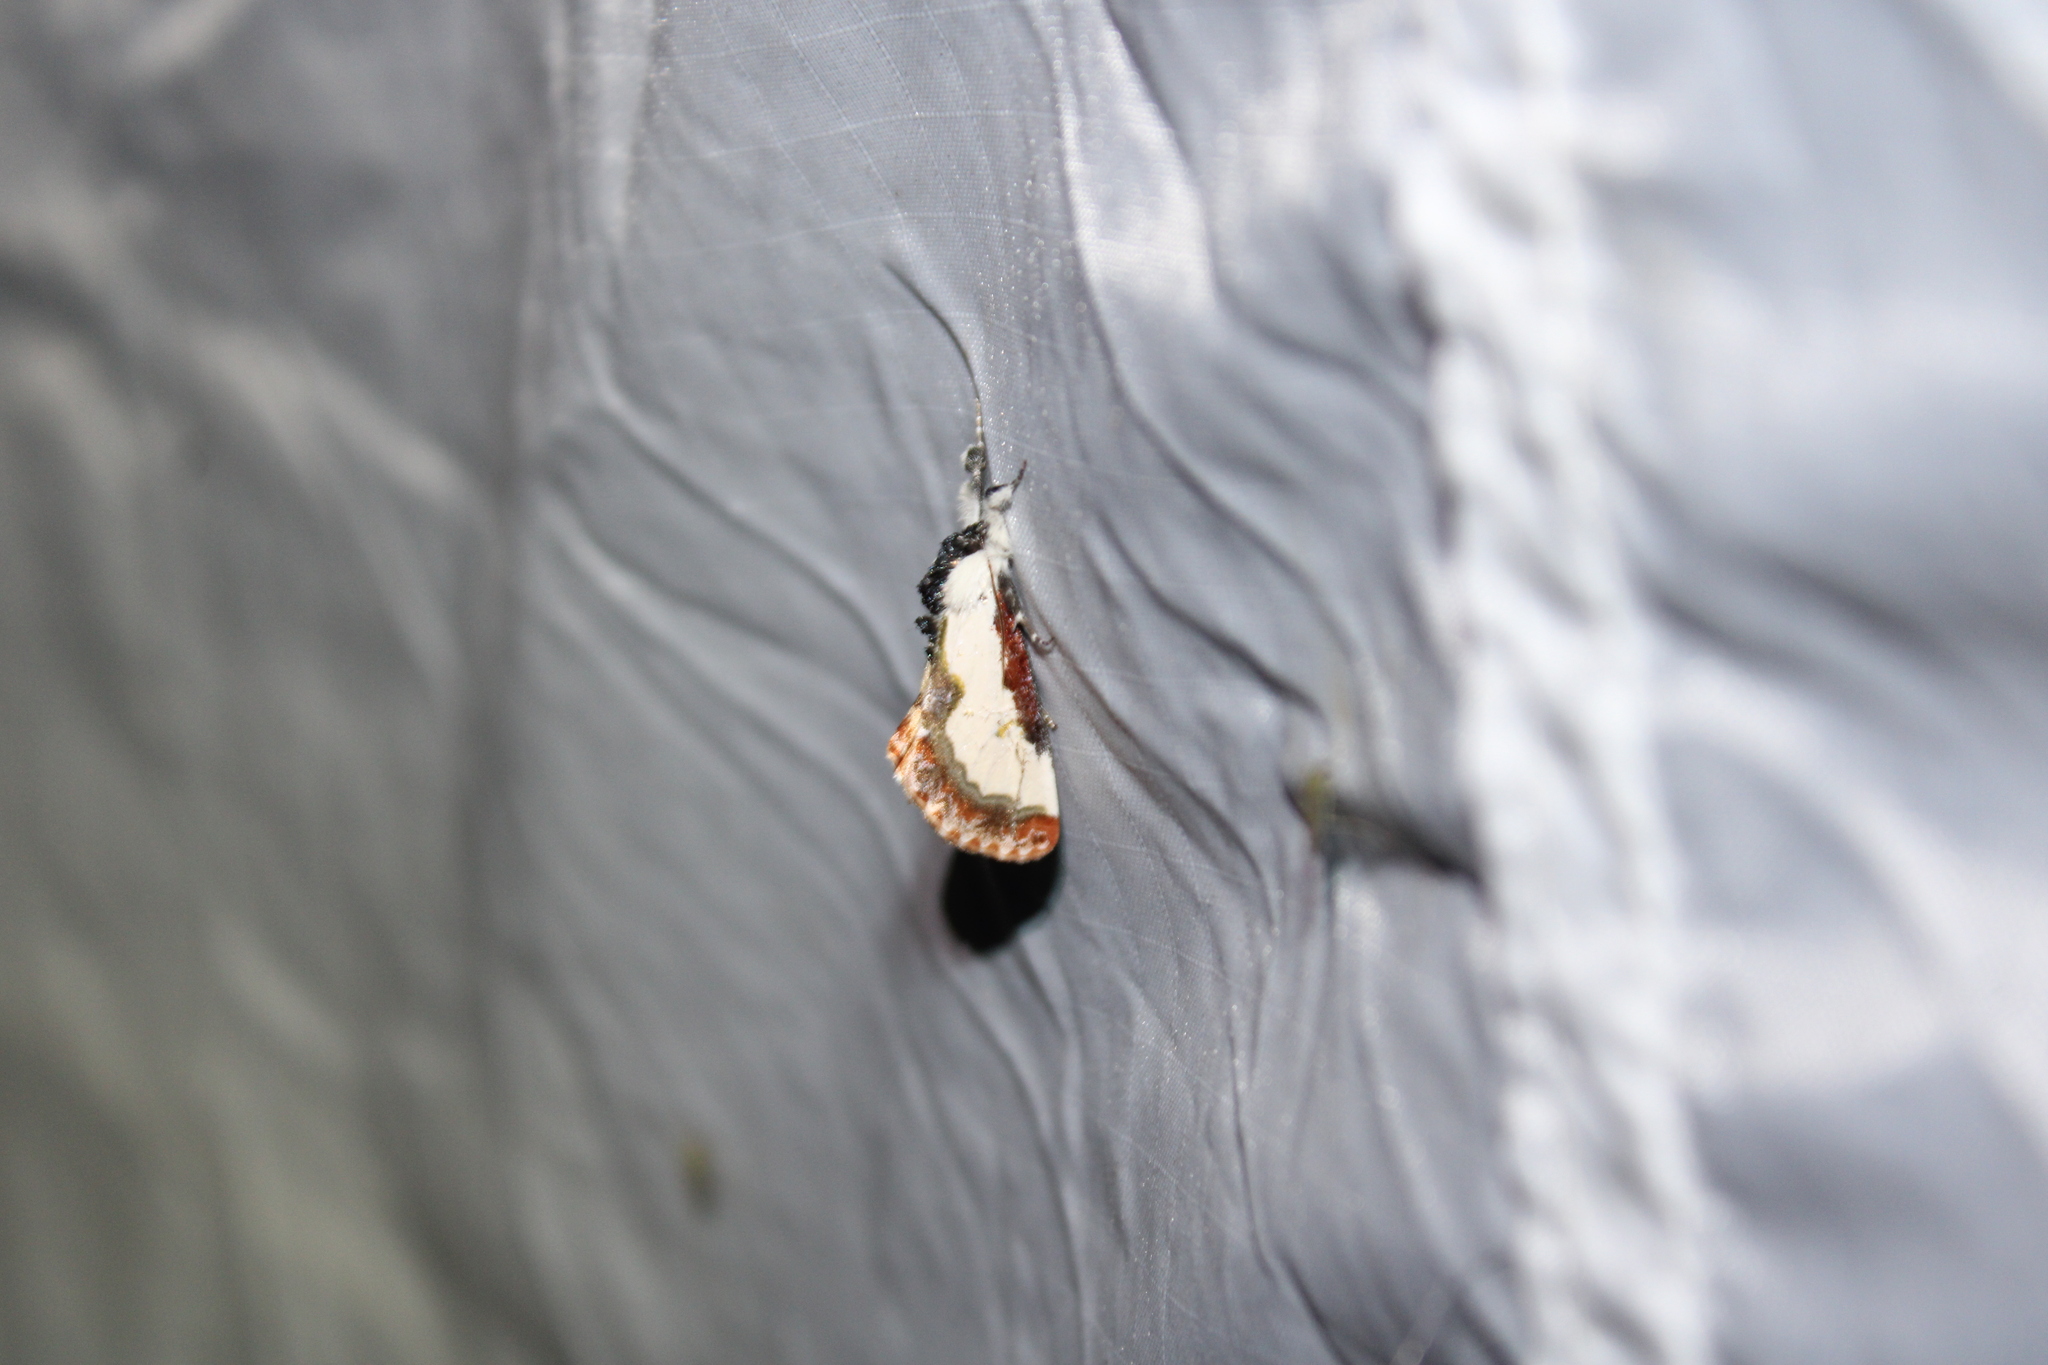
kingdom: Animalia
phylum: Arthropoda
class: Insecta
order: Lepidoptera
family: Noctuidae
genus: Eudryas
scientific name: Eudryas unio
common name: Pearly wood-nymph
